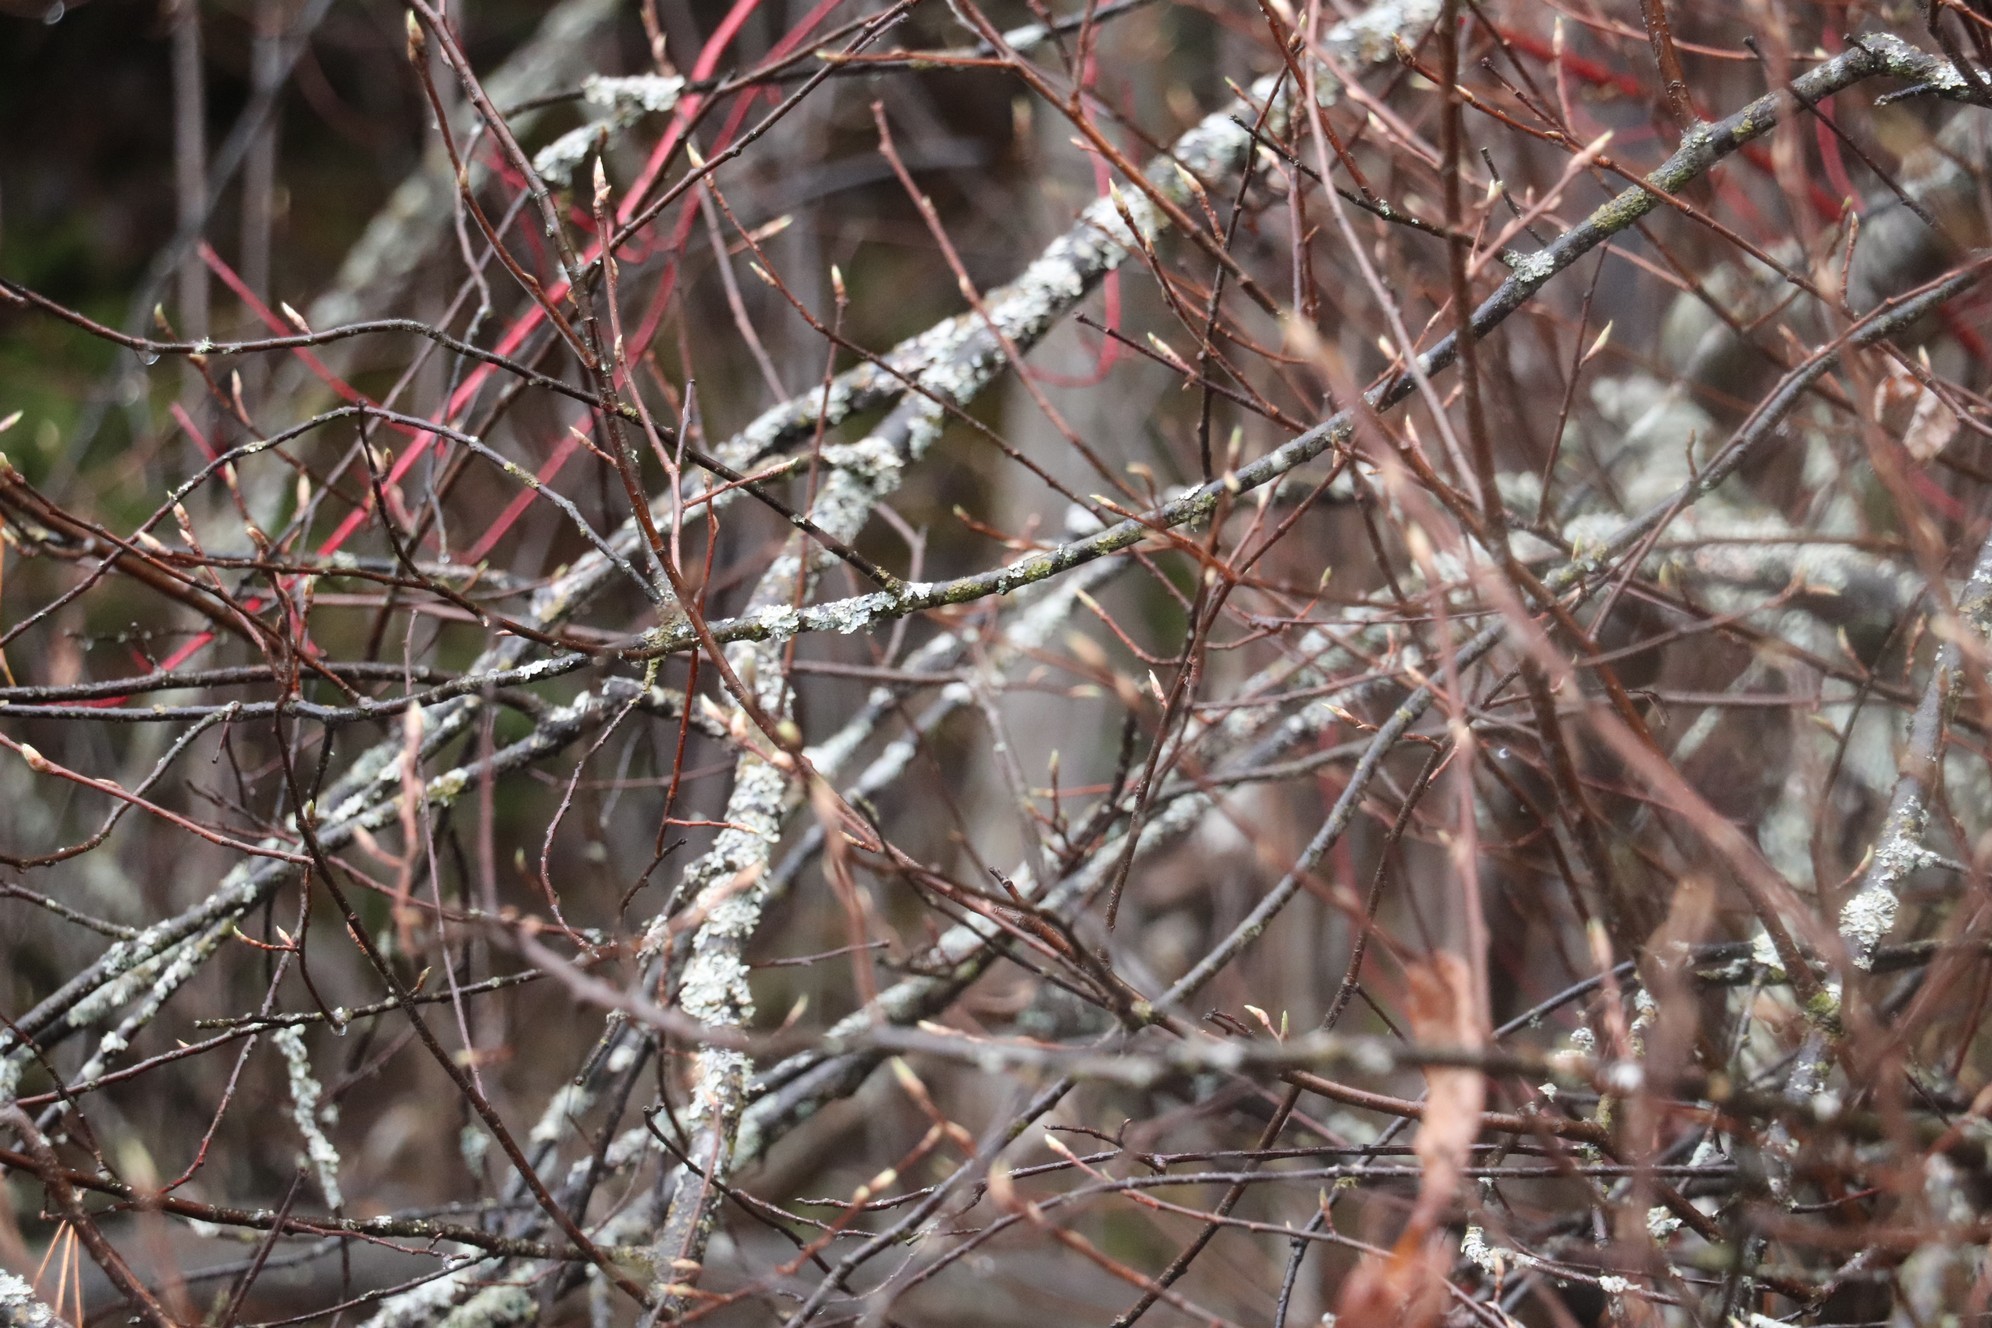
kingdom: Plantae
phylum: Tracheophyta
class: Magnoliopsida
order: Rosales
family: Rosaceae
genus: Prunus
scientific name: Prunus padus
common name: Bird cherry
